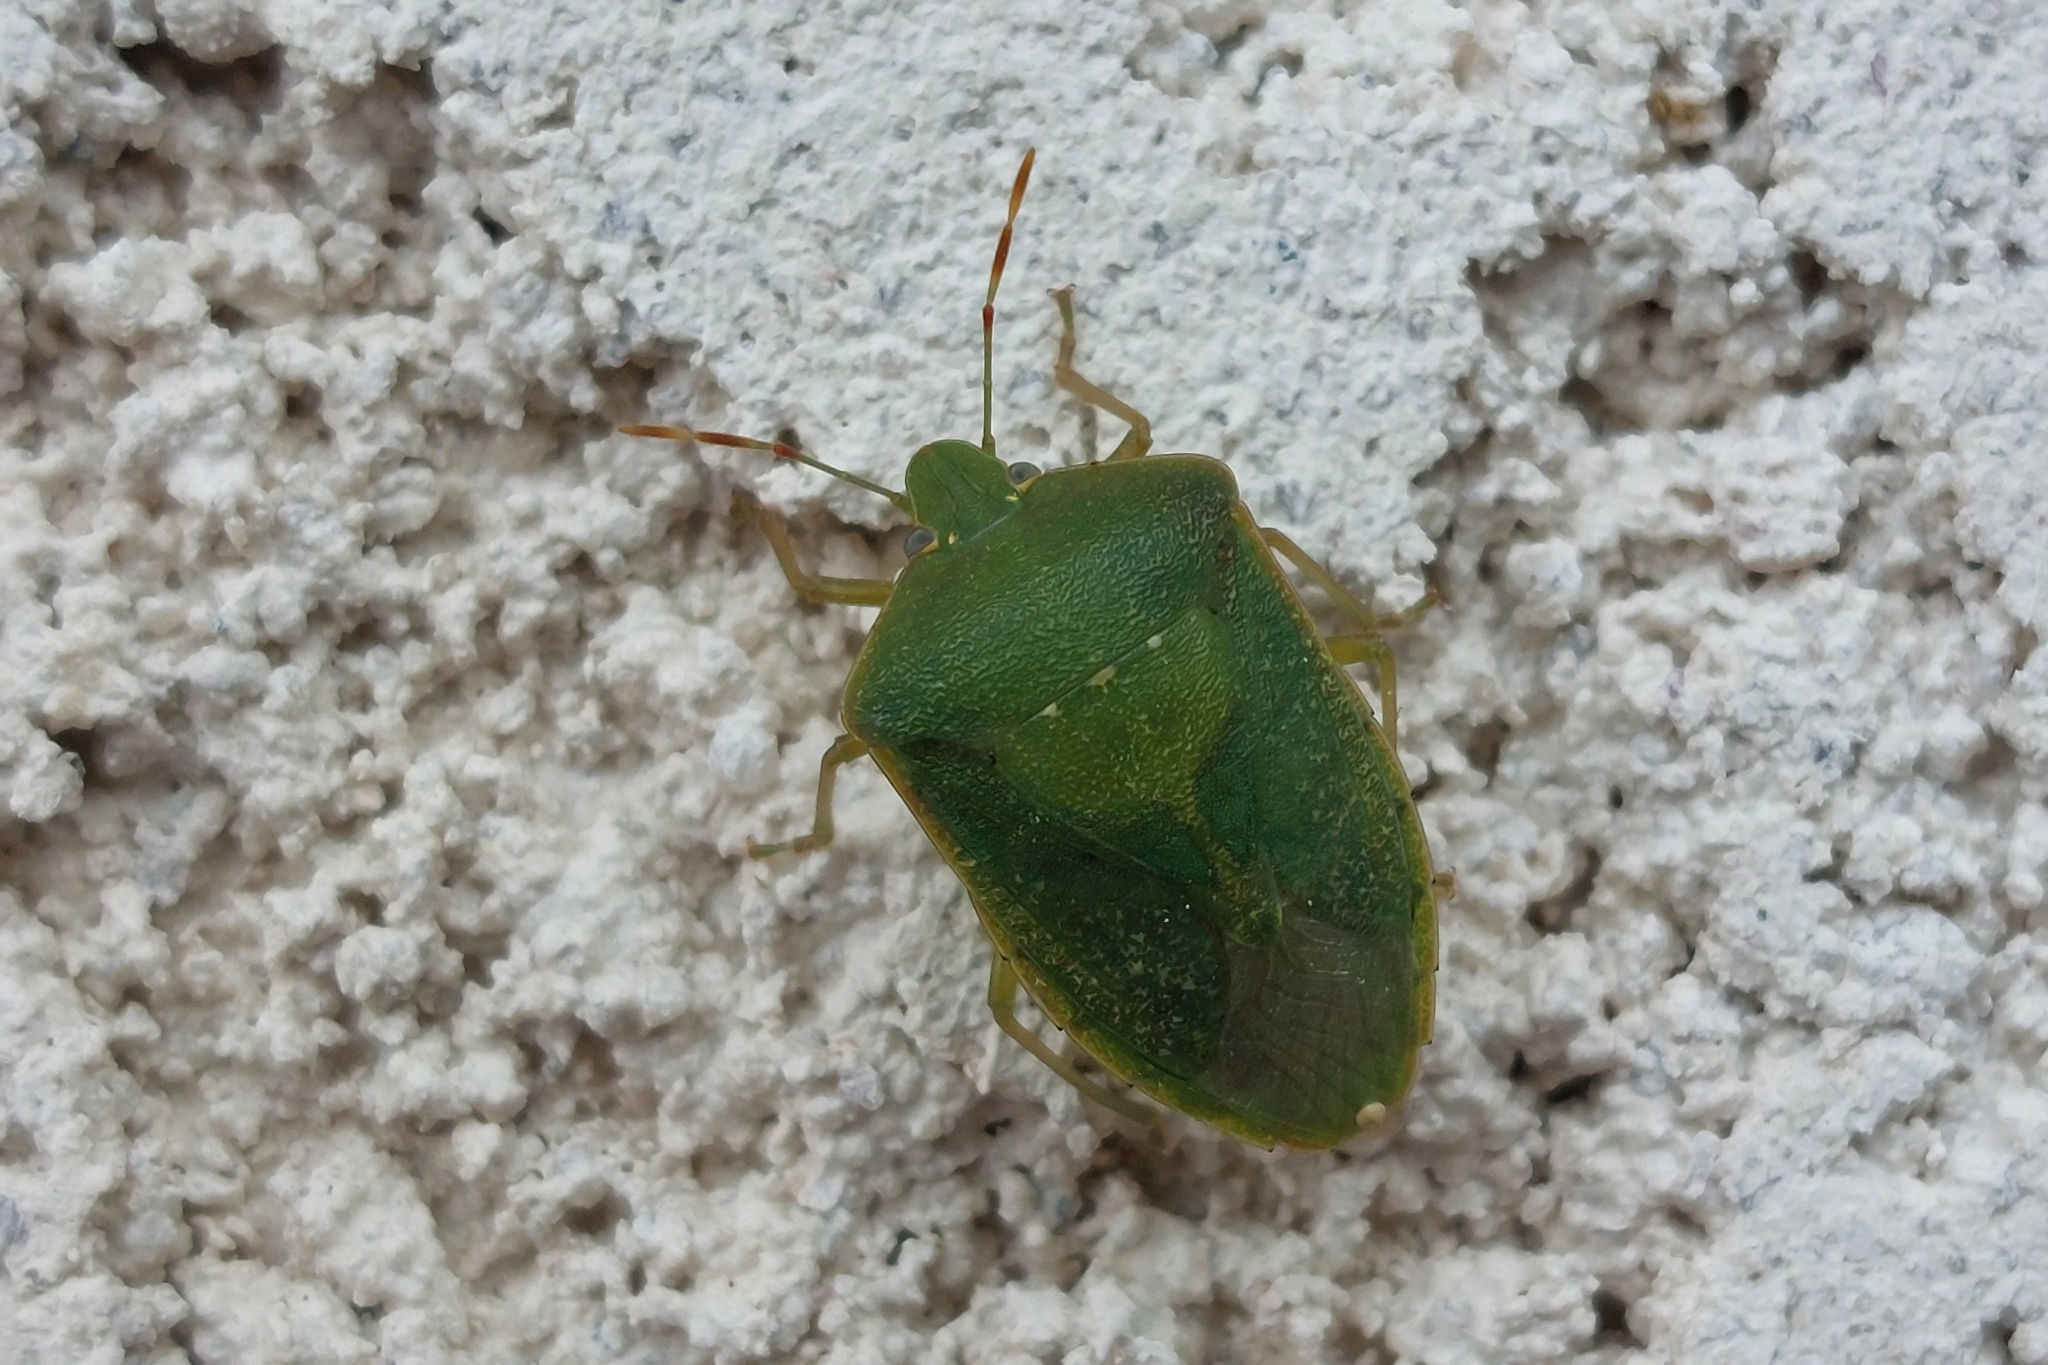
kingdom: Animalia
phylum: Arthropoda
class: Insecta
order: Hemiptera
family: Pentatomidae
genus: Nezara
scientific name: Nezara viridula
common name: Southern green stink bug
